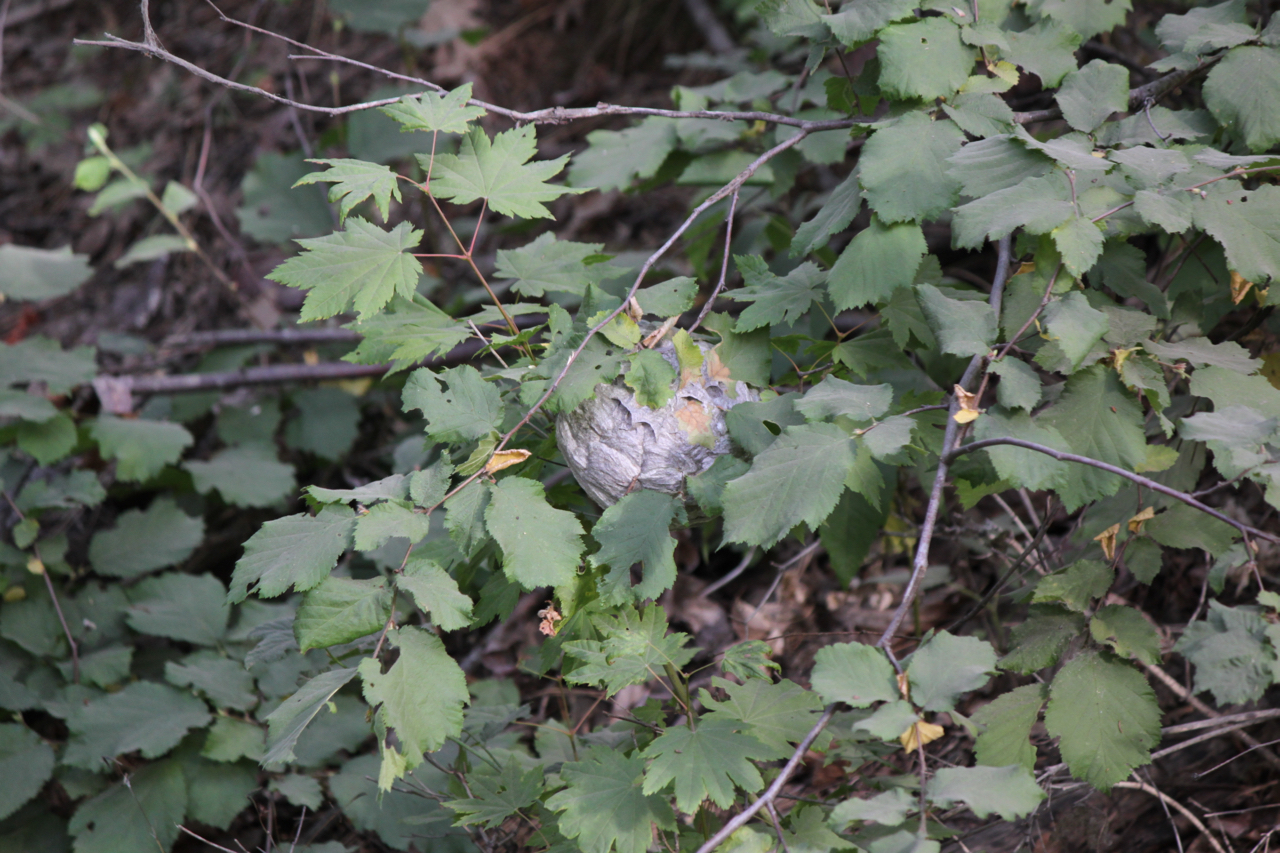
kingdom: Animalia
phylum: Arthropoda
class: Insecta
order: Hymenoptera
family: Vespidae
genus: Dolichovespula
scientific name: Dolichovespula
